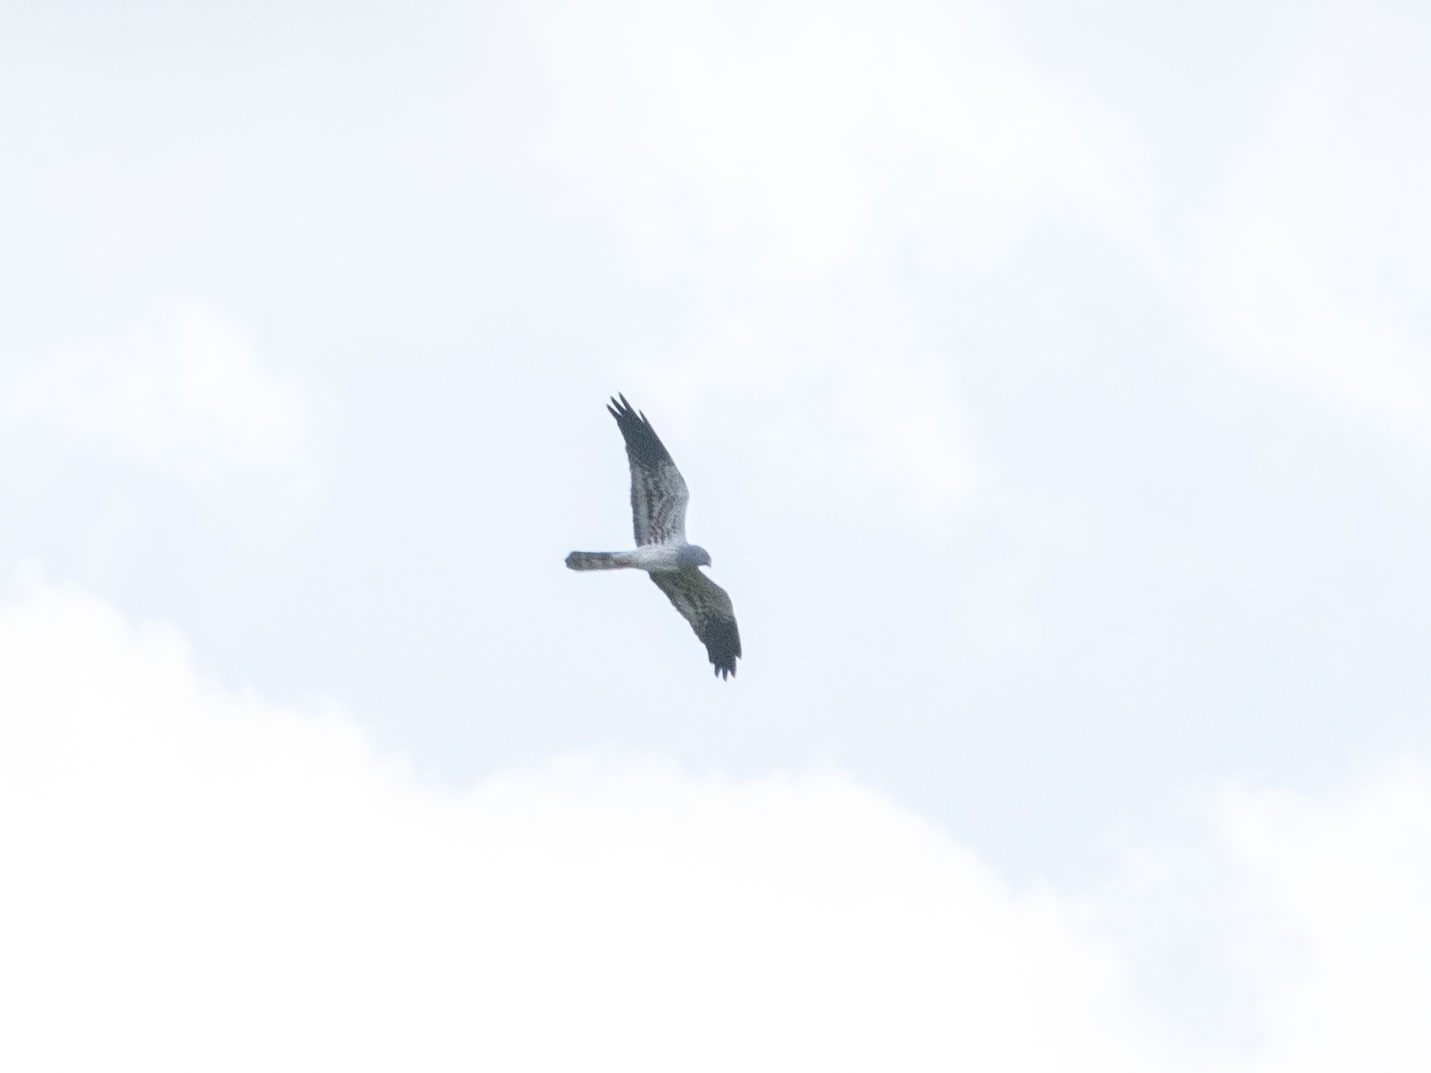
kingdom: Animalia
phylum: Chordata
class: Aves
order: Accipitriformes
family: Accipitridae
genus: Circus
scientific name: Circus pygargus
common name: Montagu's harrier
